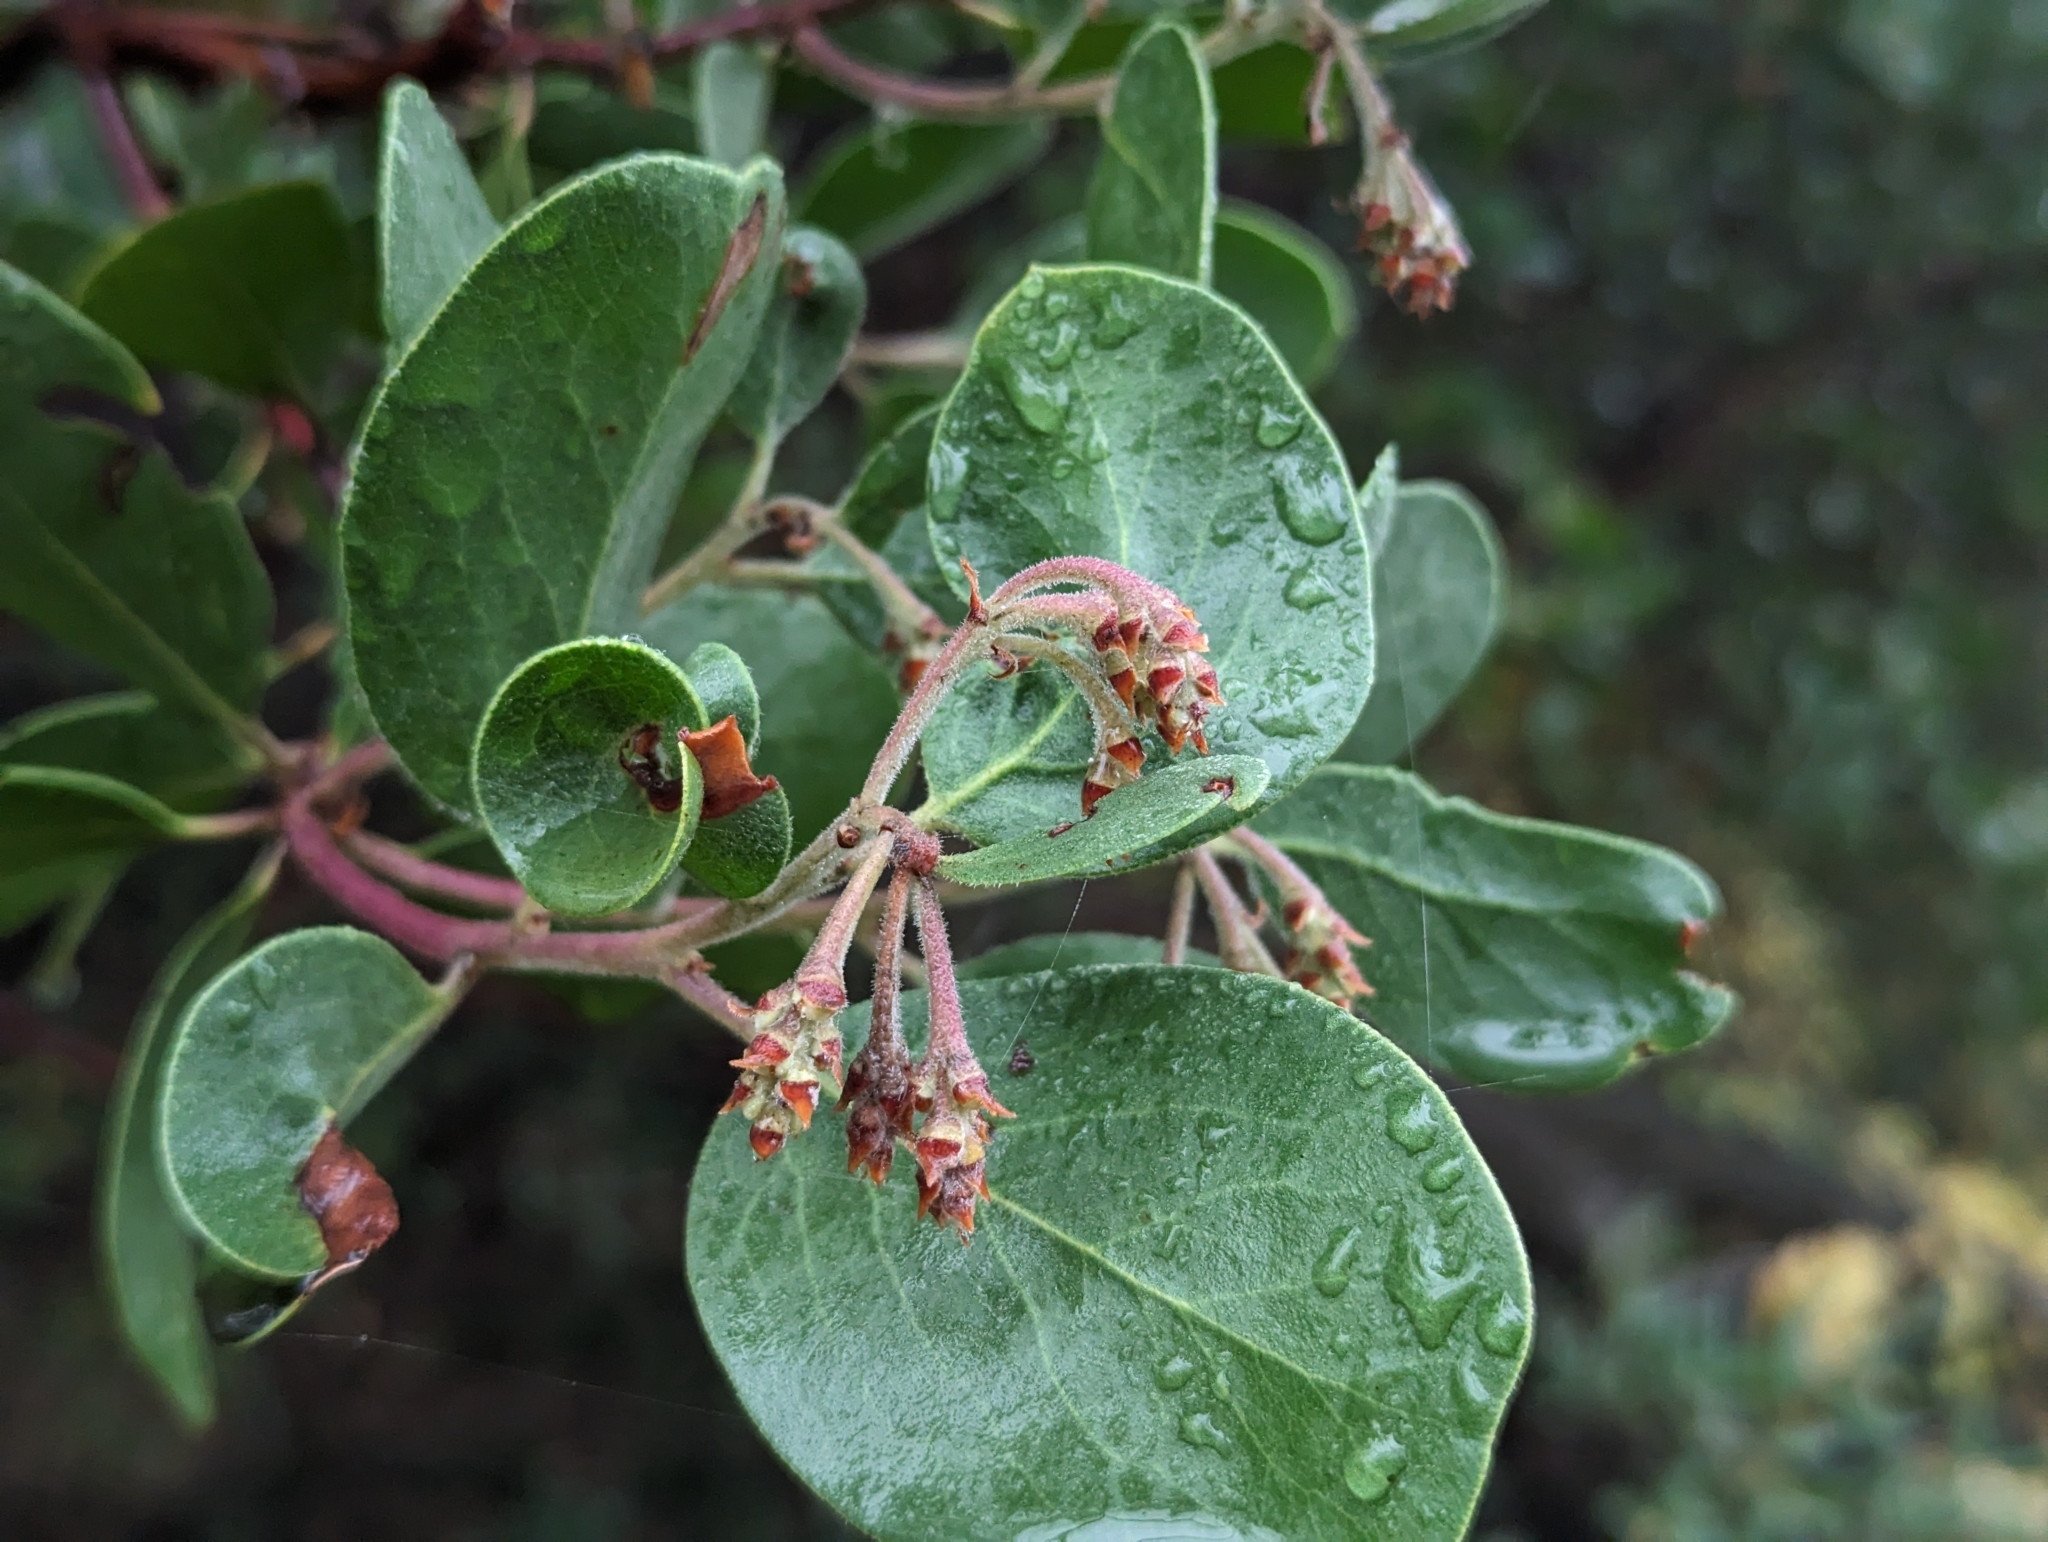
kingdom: Plantae
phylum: Tracheophyta
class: Magnoliopsida
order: Ericales
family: Ericaceae
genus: Arctostaphylos
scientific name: Arctostaphylos manzanita
